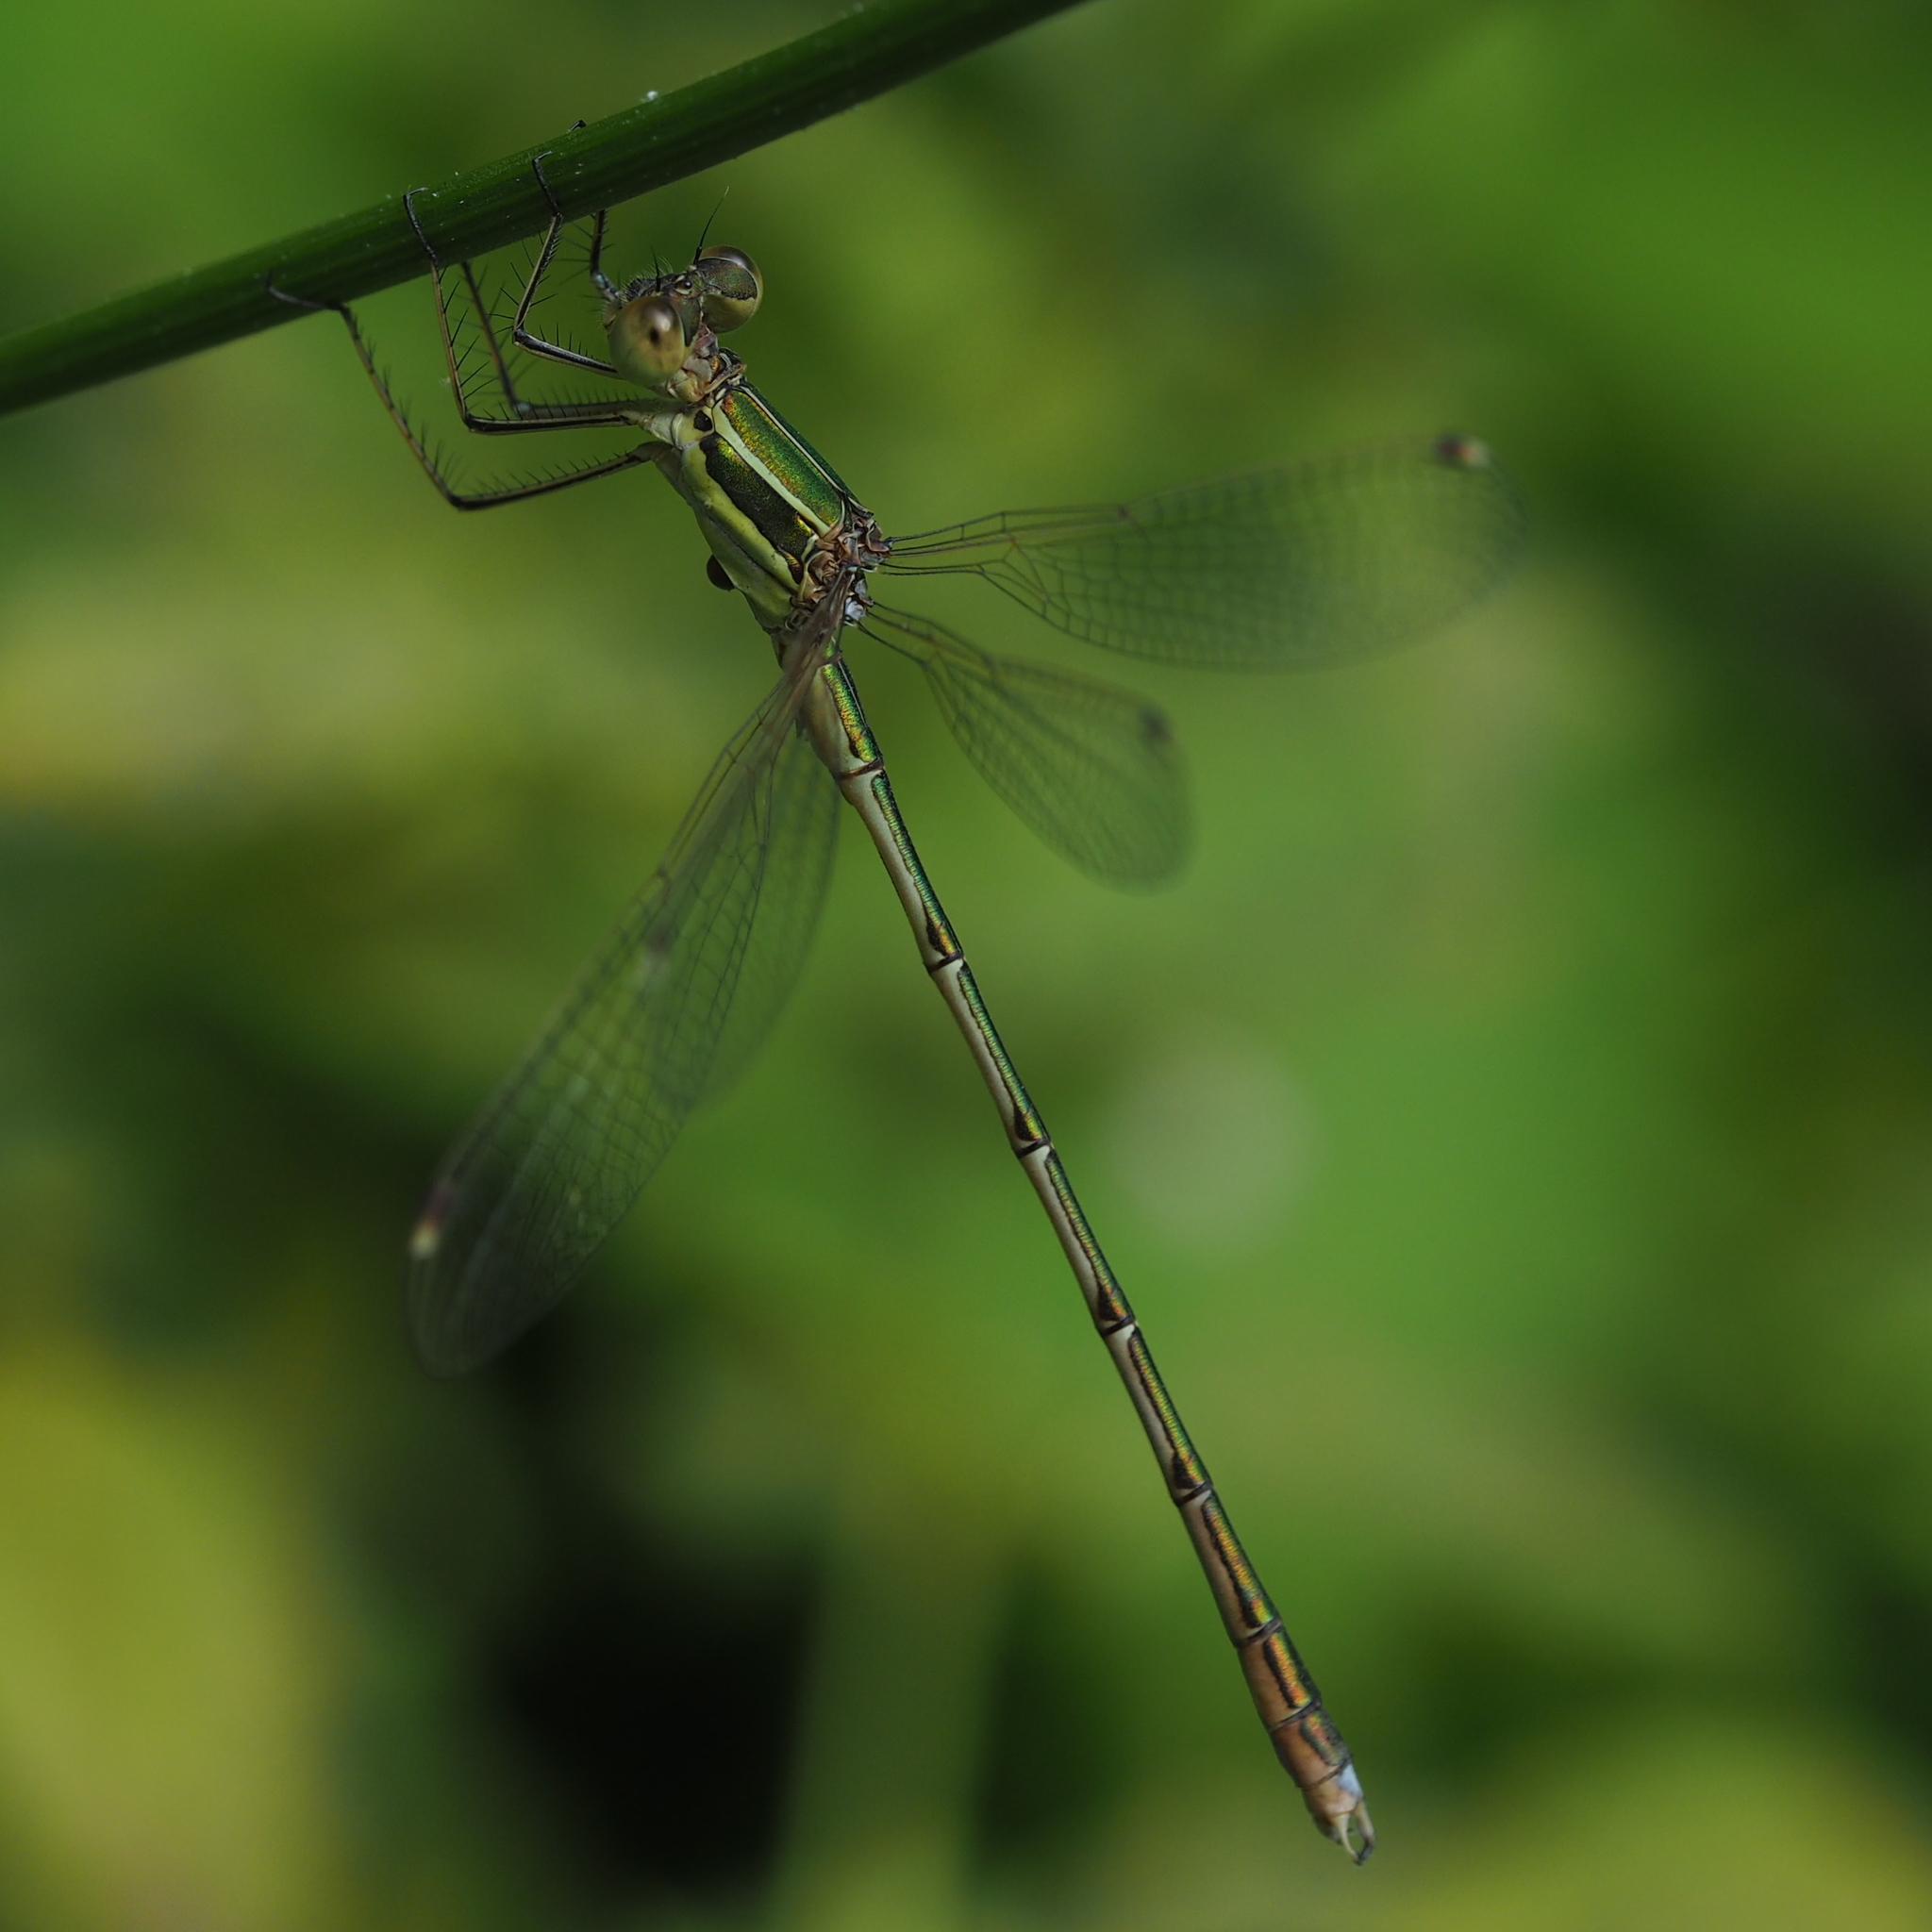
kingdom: Animalia
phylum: Arthropoda
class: Insecta
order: Odonata
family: Lestidae
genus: Lestes
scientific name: Lestes barbarus
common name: Migrant spreadwing
